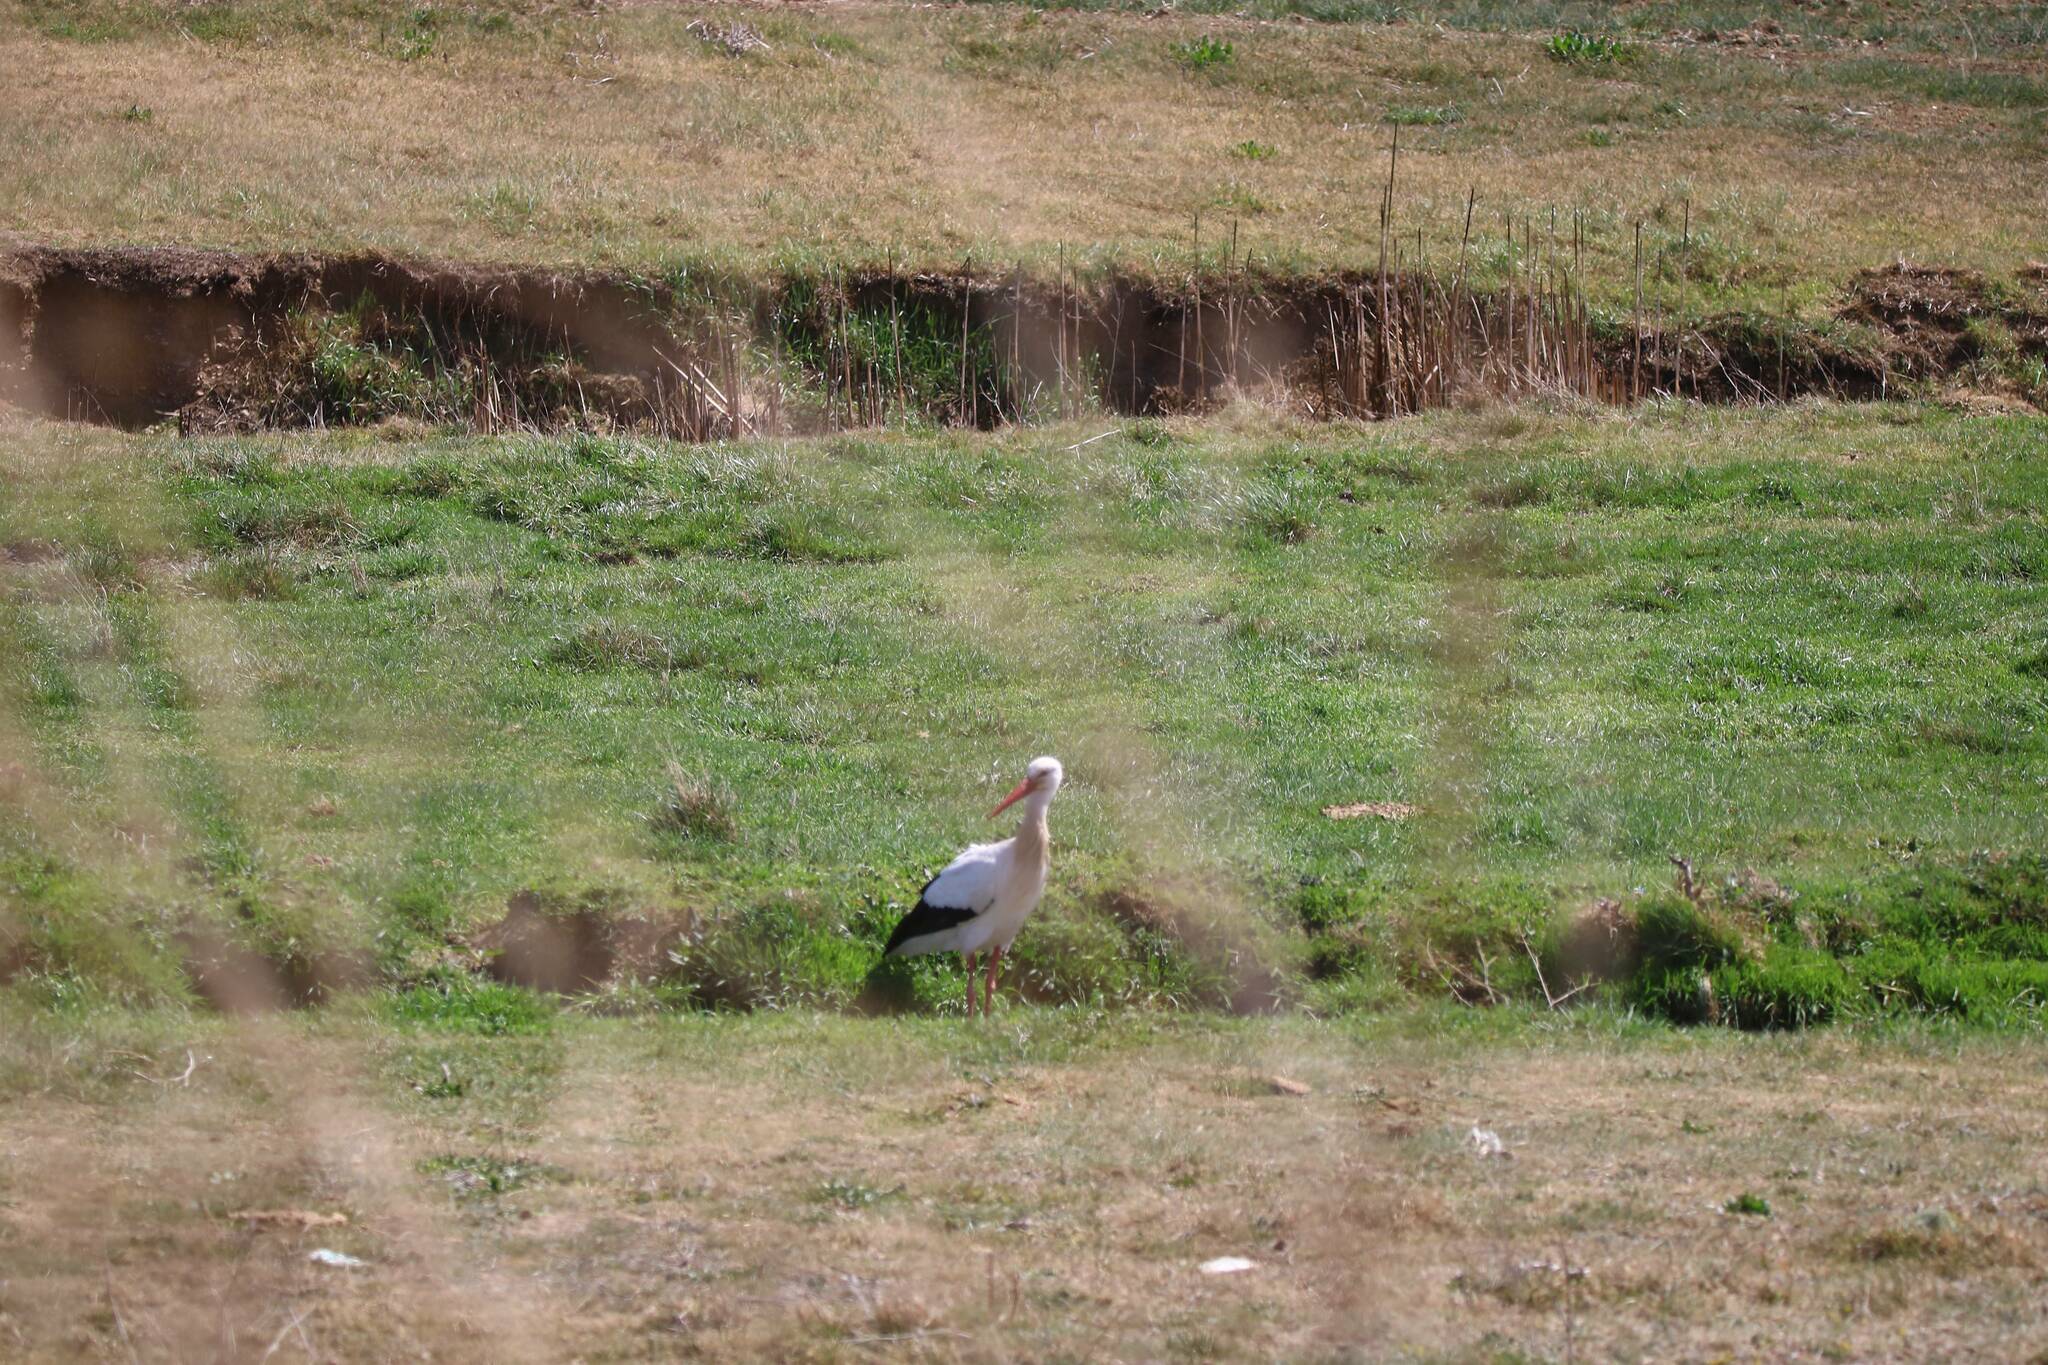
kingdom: Animalia
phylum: Chordata
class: Aves
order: Ciconiiformes
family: Ciconiidae
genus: Ciconia
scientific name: Ciconia ciconia
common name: White stork
